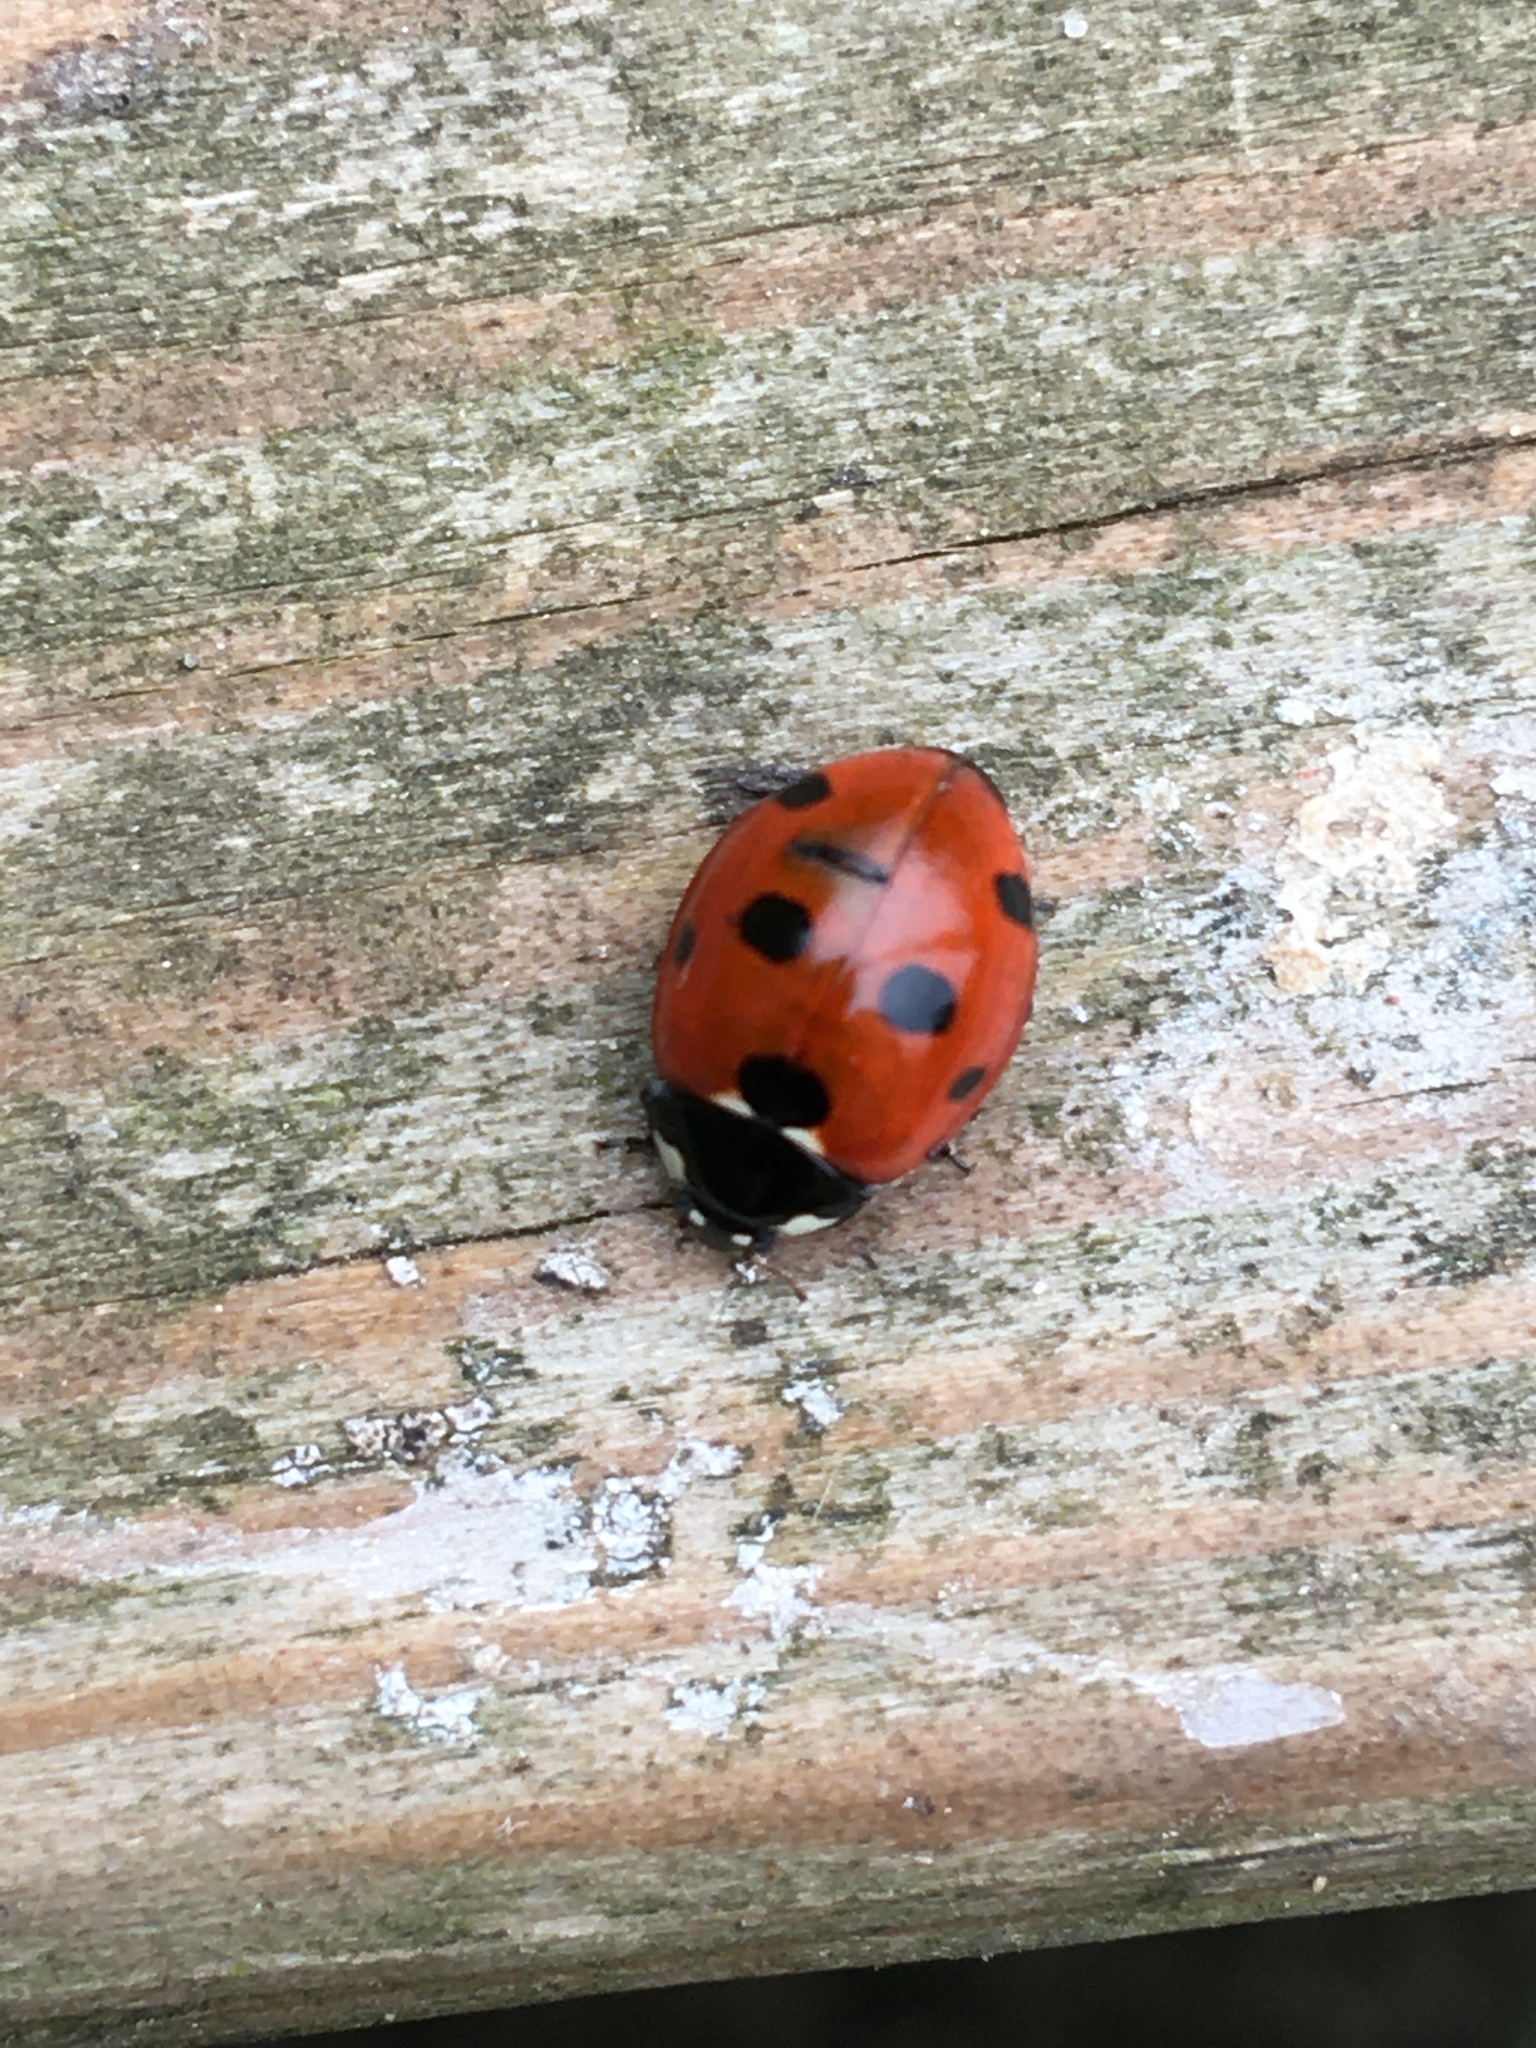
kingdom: Animalia
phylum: Arthropoda
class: Insecta
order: Coleoptera
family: Coccinellidae
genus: Coccinella
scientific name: Coccinella septempunctata
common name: Sevenspotted lady beetle
